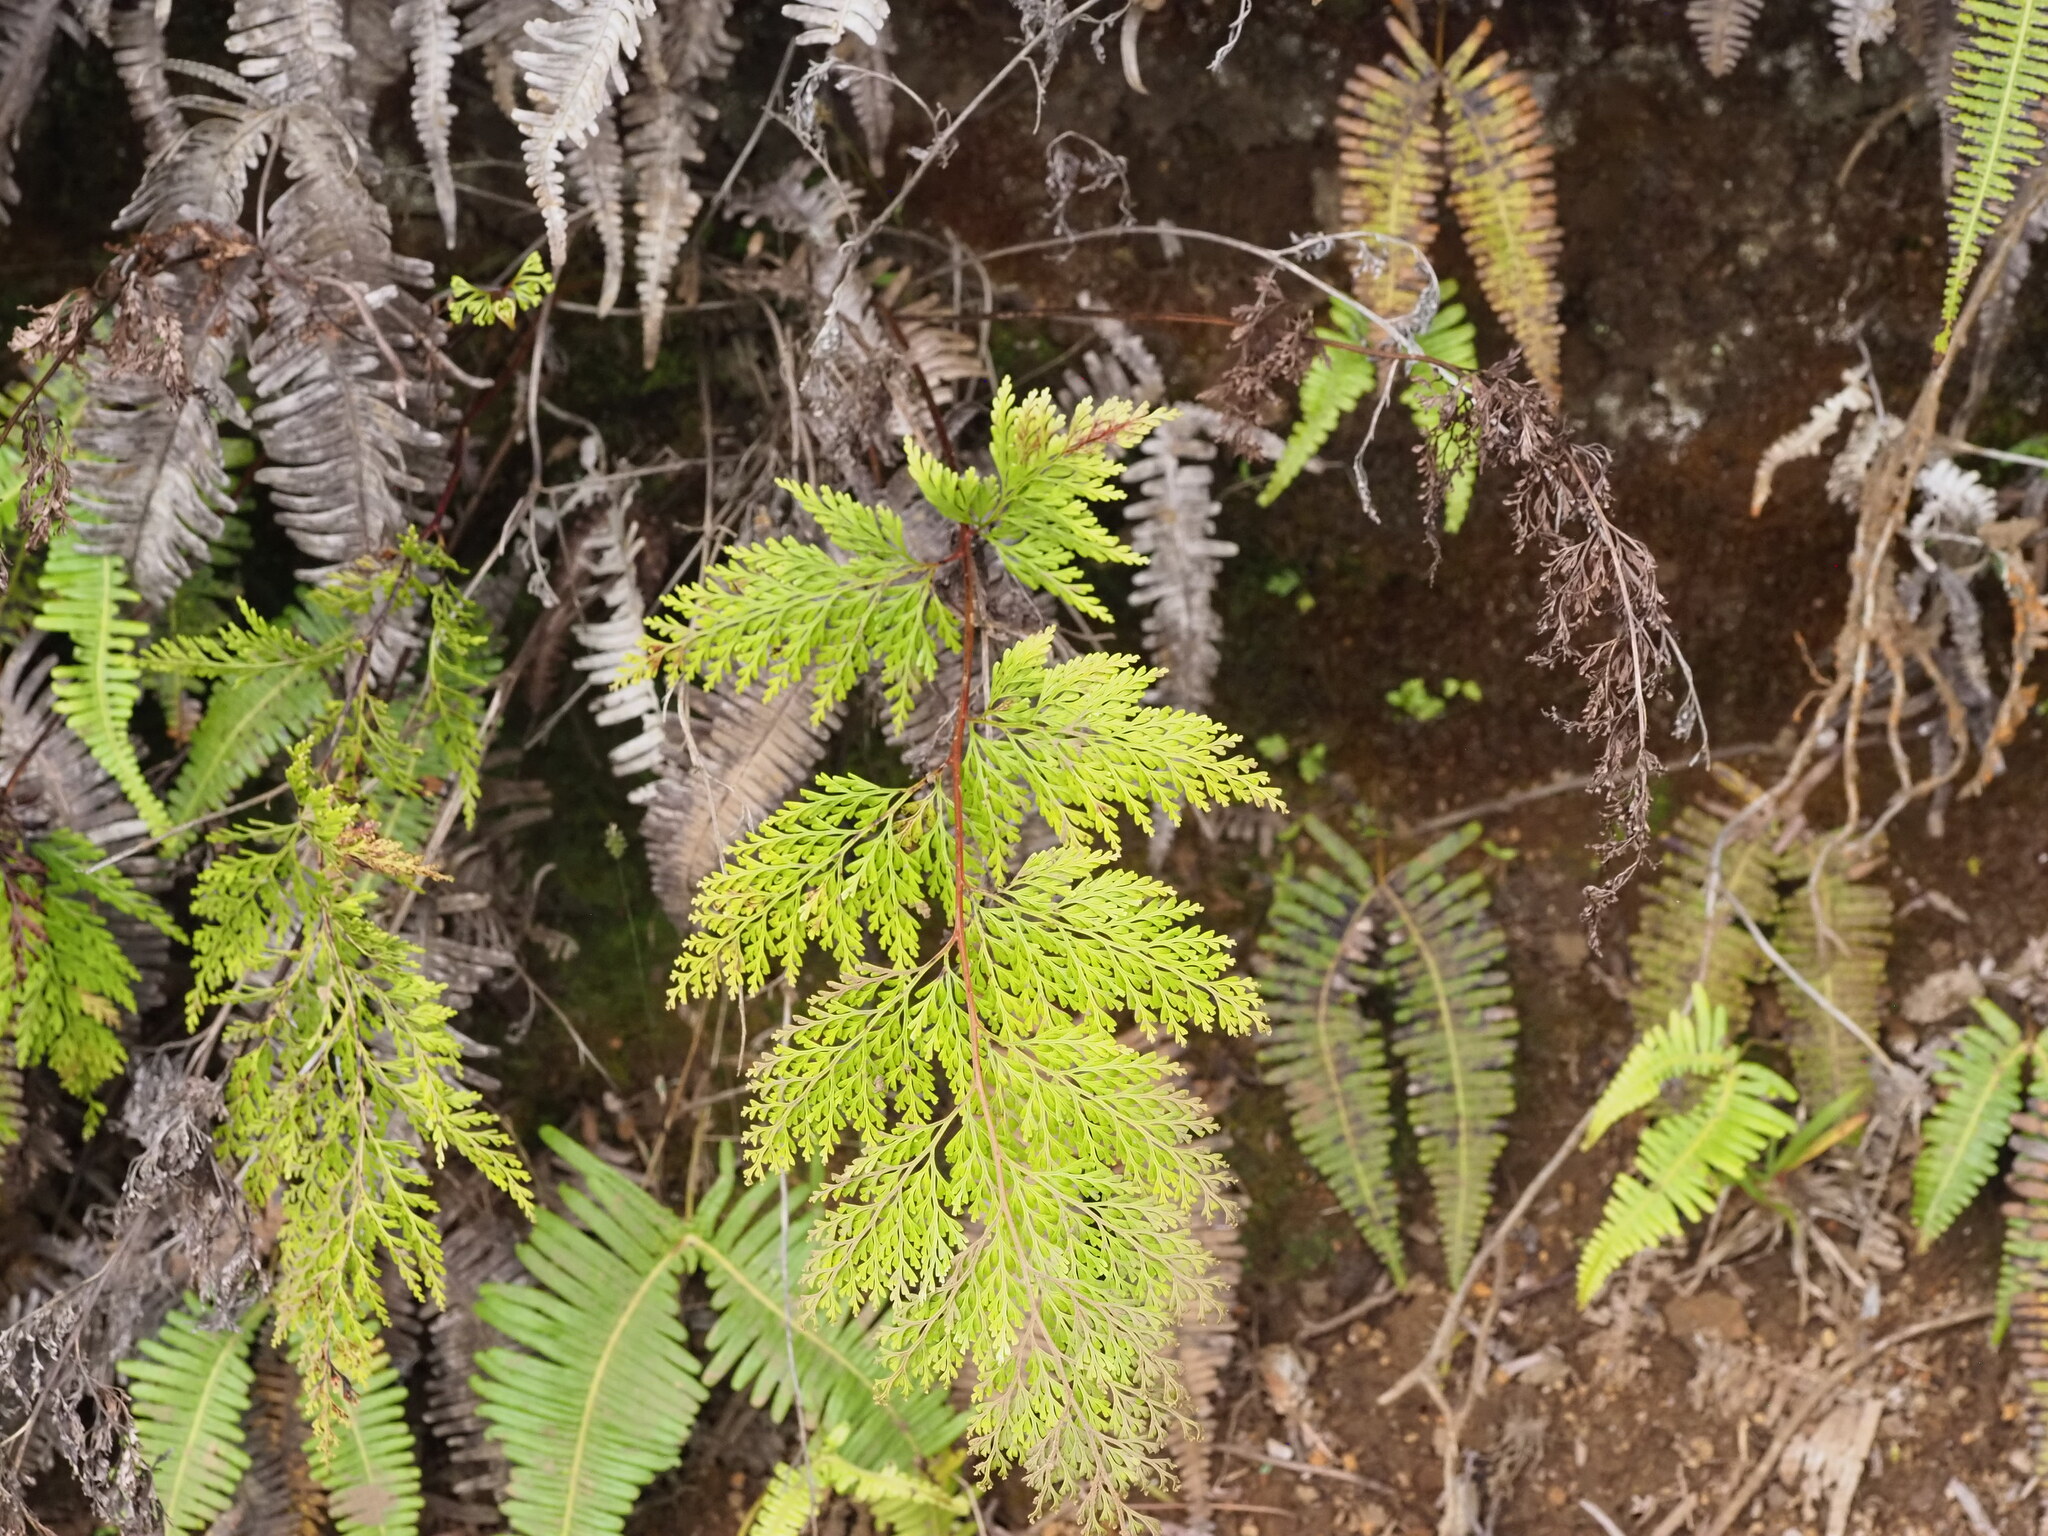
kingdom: Plantae
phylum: Tracheophyta
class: Polypodiopsida
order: Polypodiales
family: Lindsaeaceae
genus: Odontosoria
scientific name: Odontosoria chinensis
